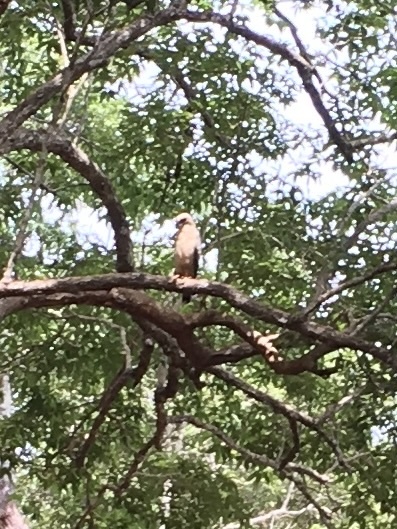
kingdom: Animalia
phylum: Chordata
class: Aves
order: Accipitriformes
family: Accipitridae
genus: Haliastur
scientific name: Haliastur indus
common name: Brahminy kite
